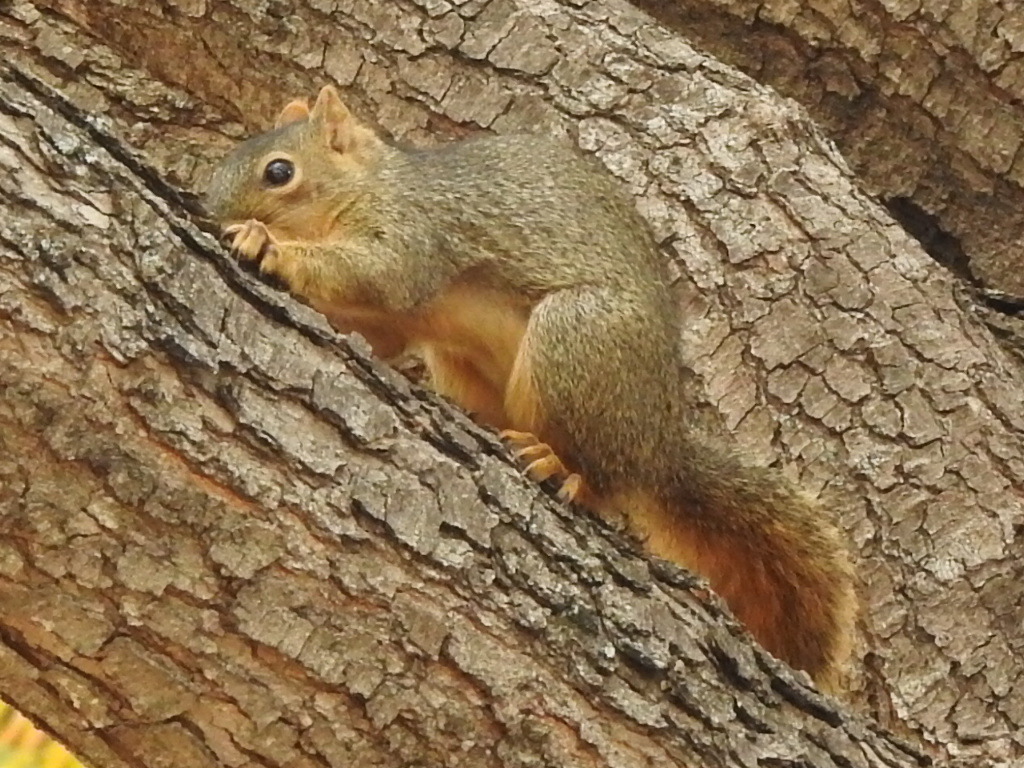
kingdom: Animalia
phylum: Chordata
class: Mammalia
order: Rodentia
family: Sciuridae
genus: Sciurus
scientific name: Sciurus niger
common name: Fox squirrel
